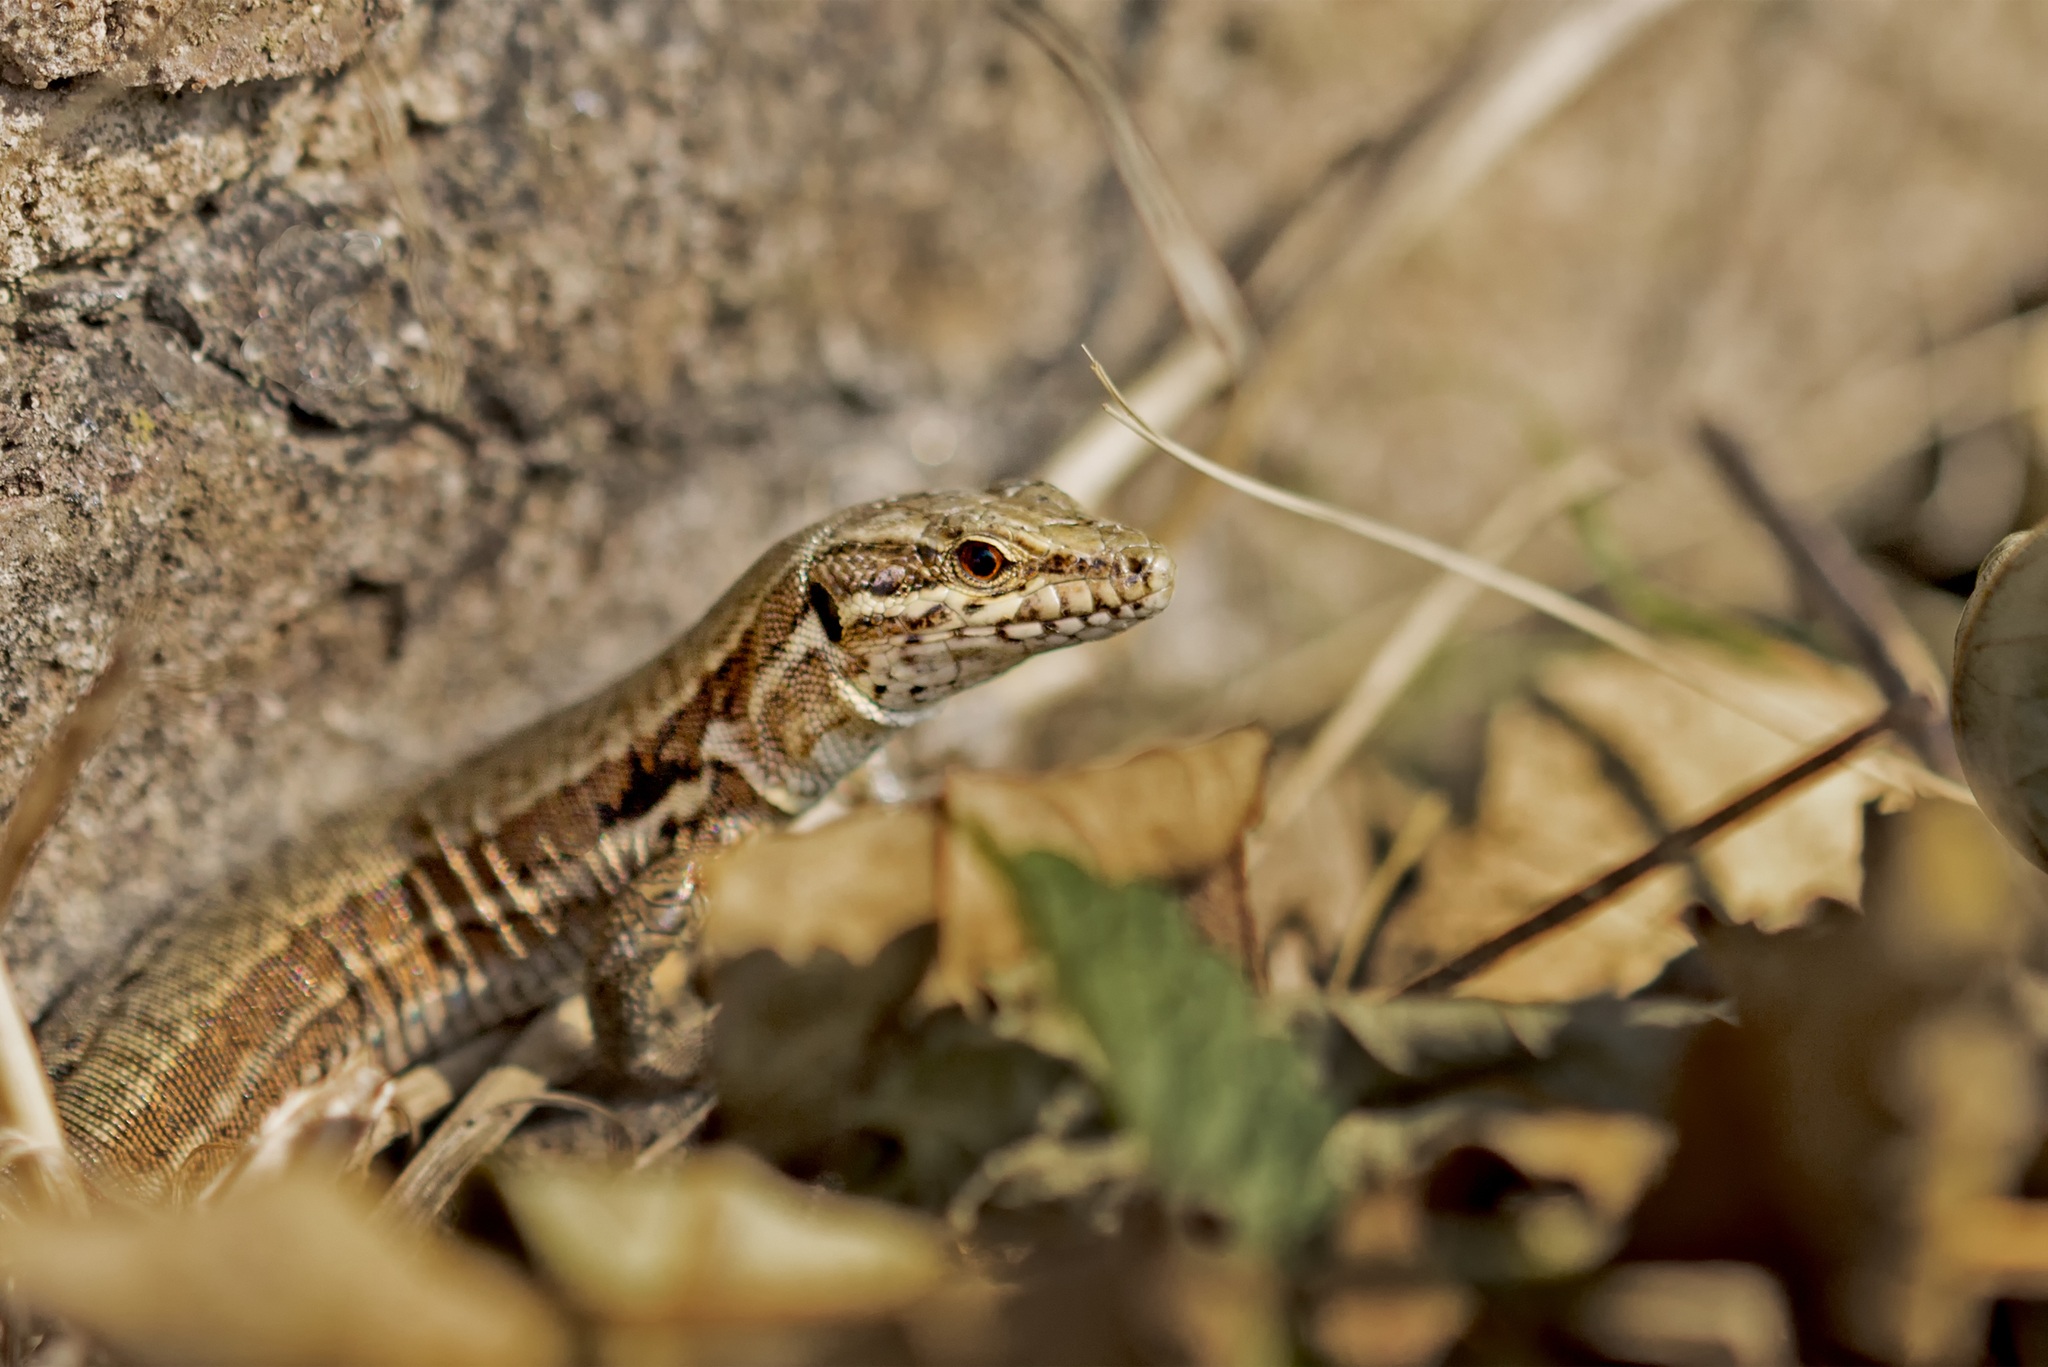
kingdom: Animalia
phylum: Chordata
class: Squamata
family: Lacertidae
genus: Podarcis
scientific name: Podarcis muralis
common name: Common wall lizard
